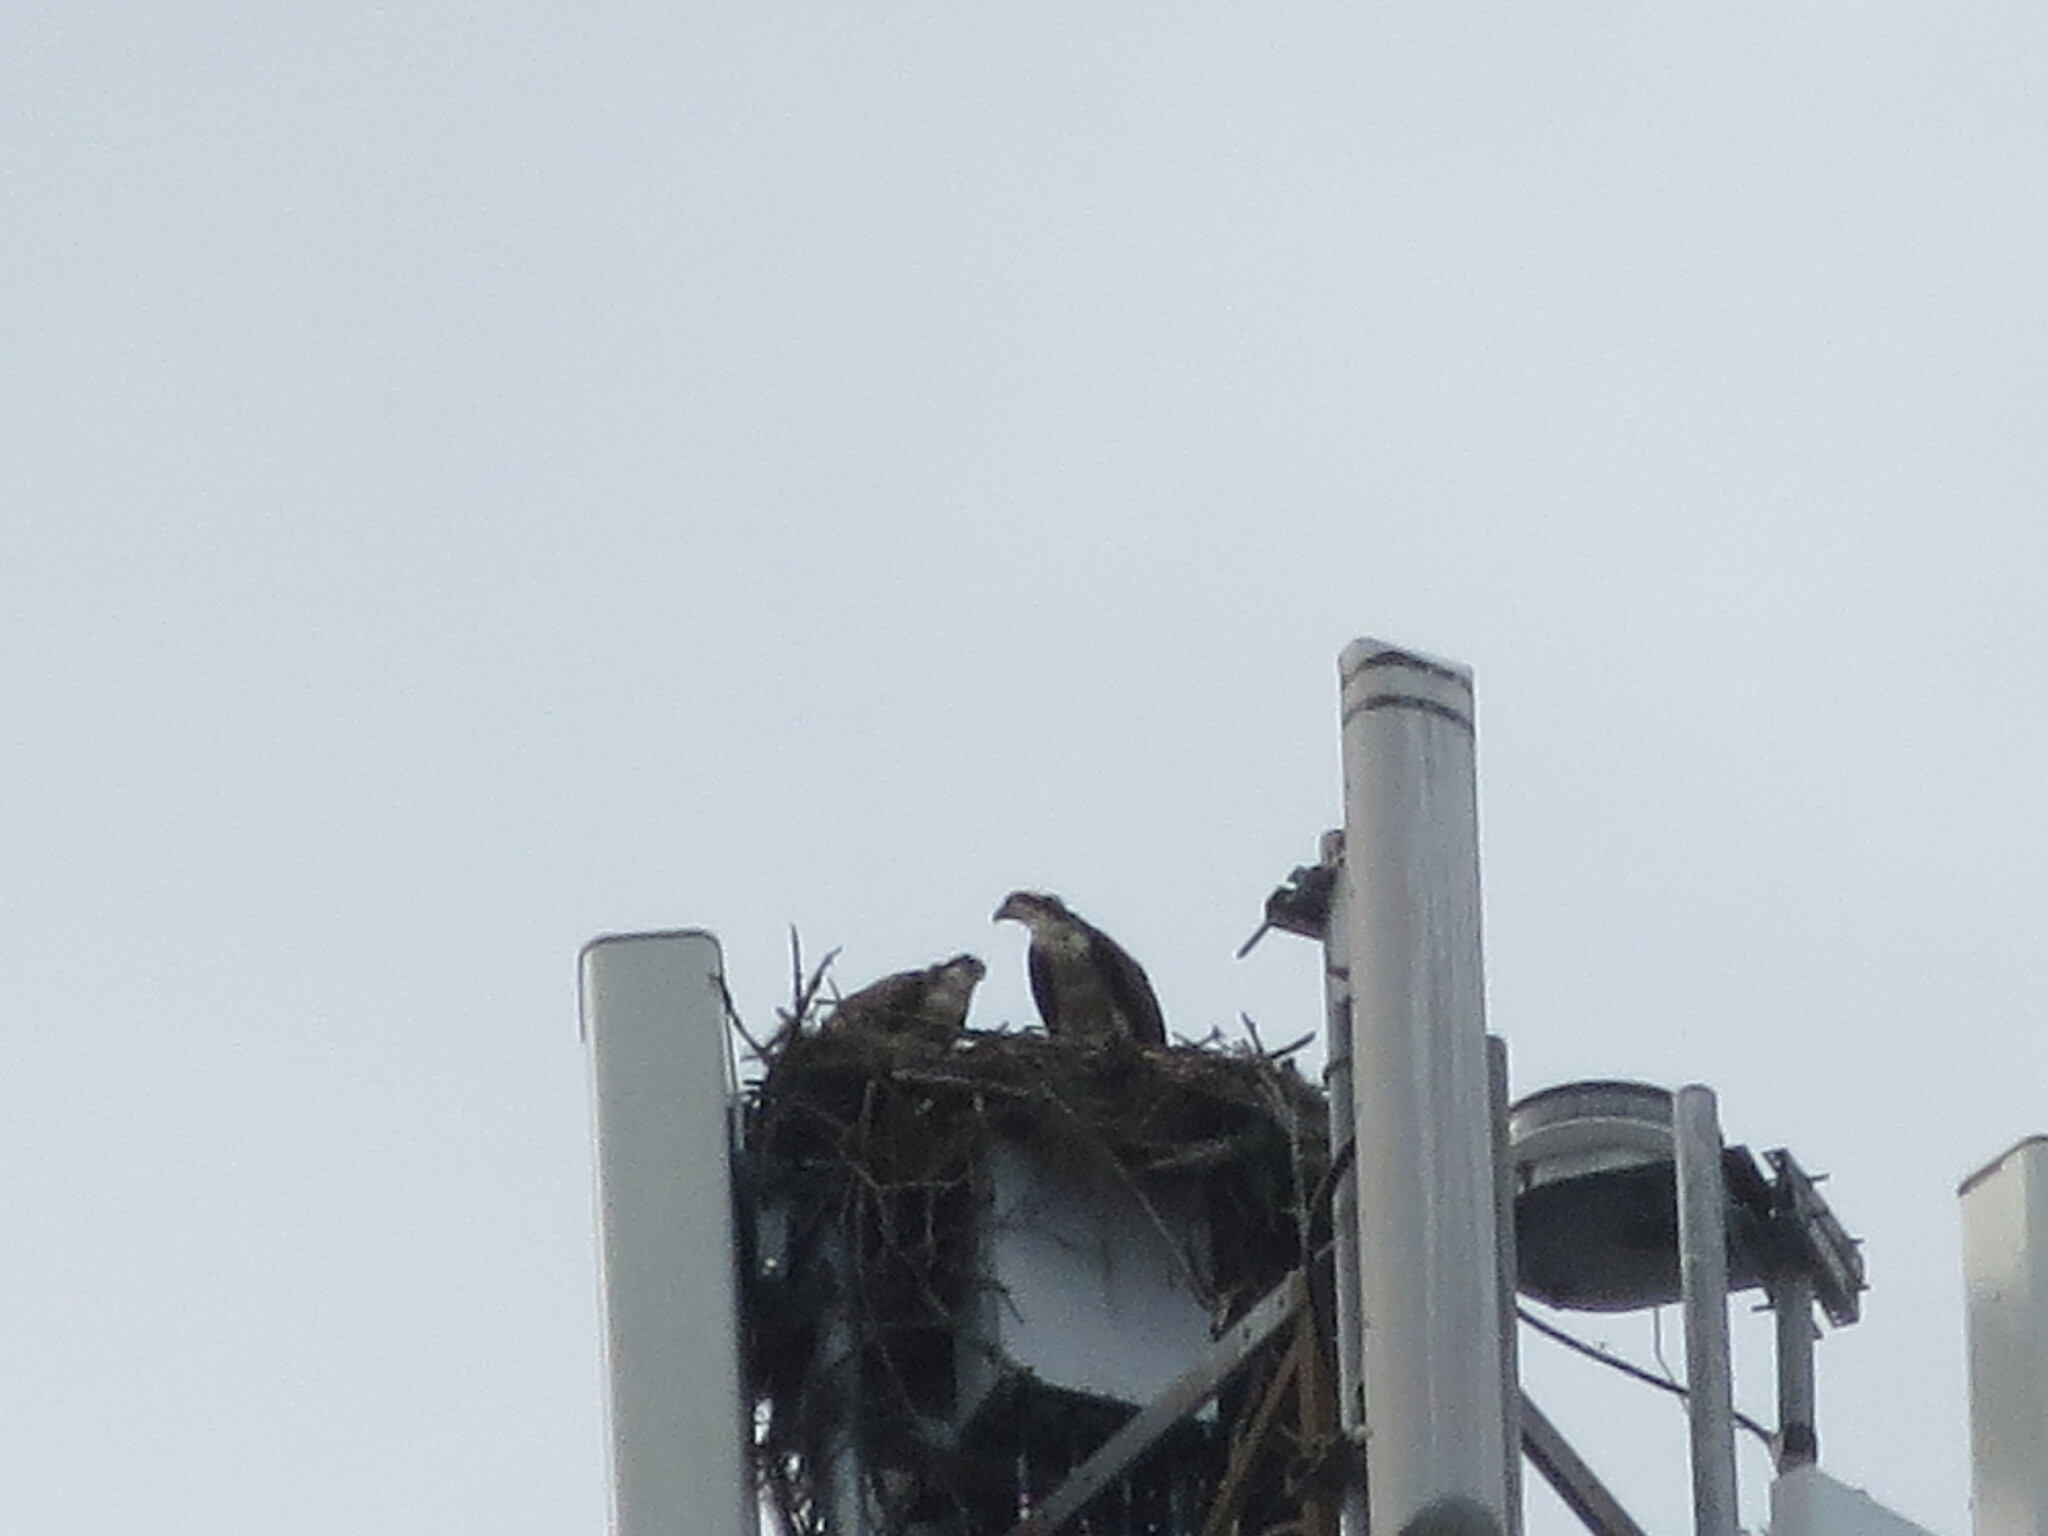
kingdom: Animalia
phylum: Chordata
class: Aves
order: Accipitriformes
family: Pandionidae
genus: Pandion
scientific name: Pandion haliaetus
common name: Osprey
